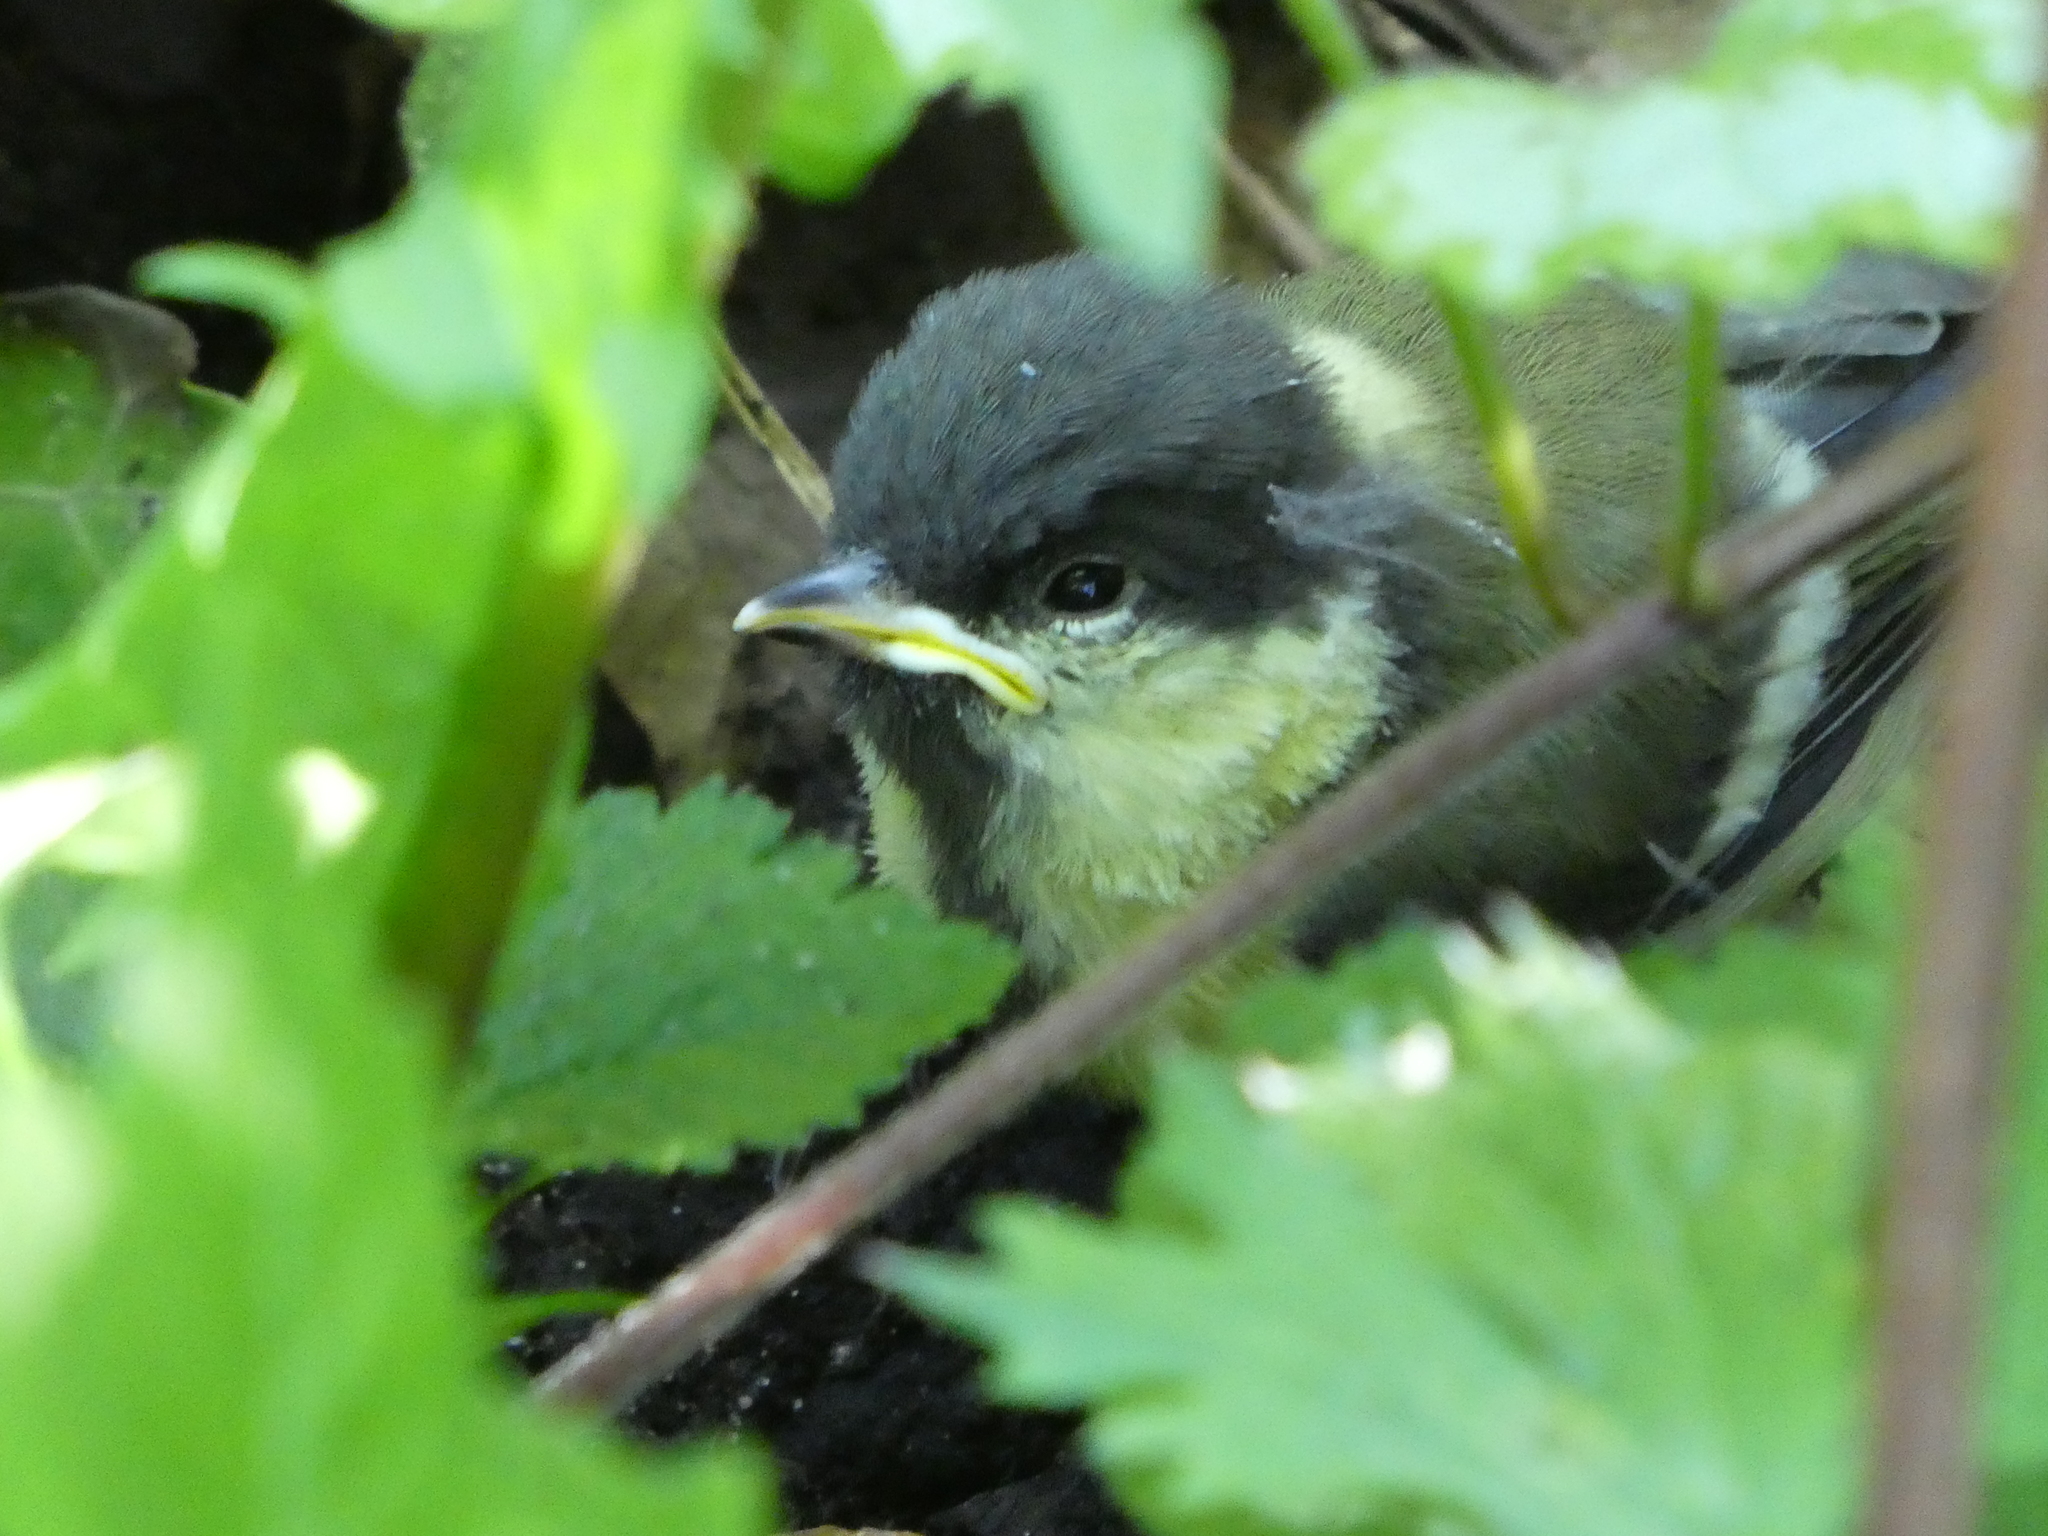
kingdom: Animalia
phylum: Chordata
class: Aves
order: Passeriformes
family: Paridae
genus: Parus
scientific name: Parus major
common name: Great tit
